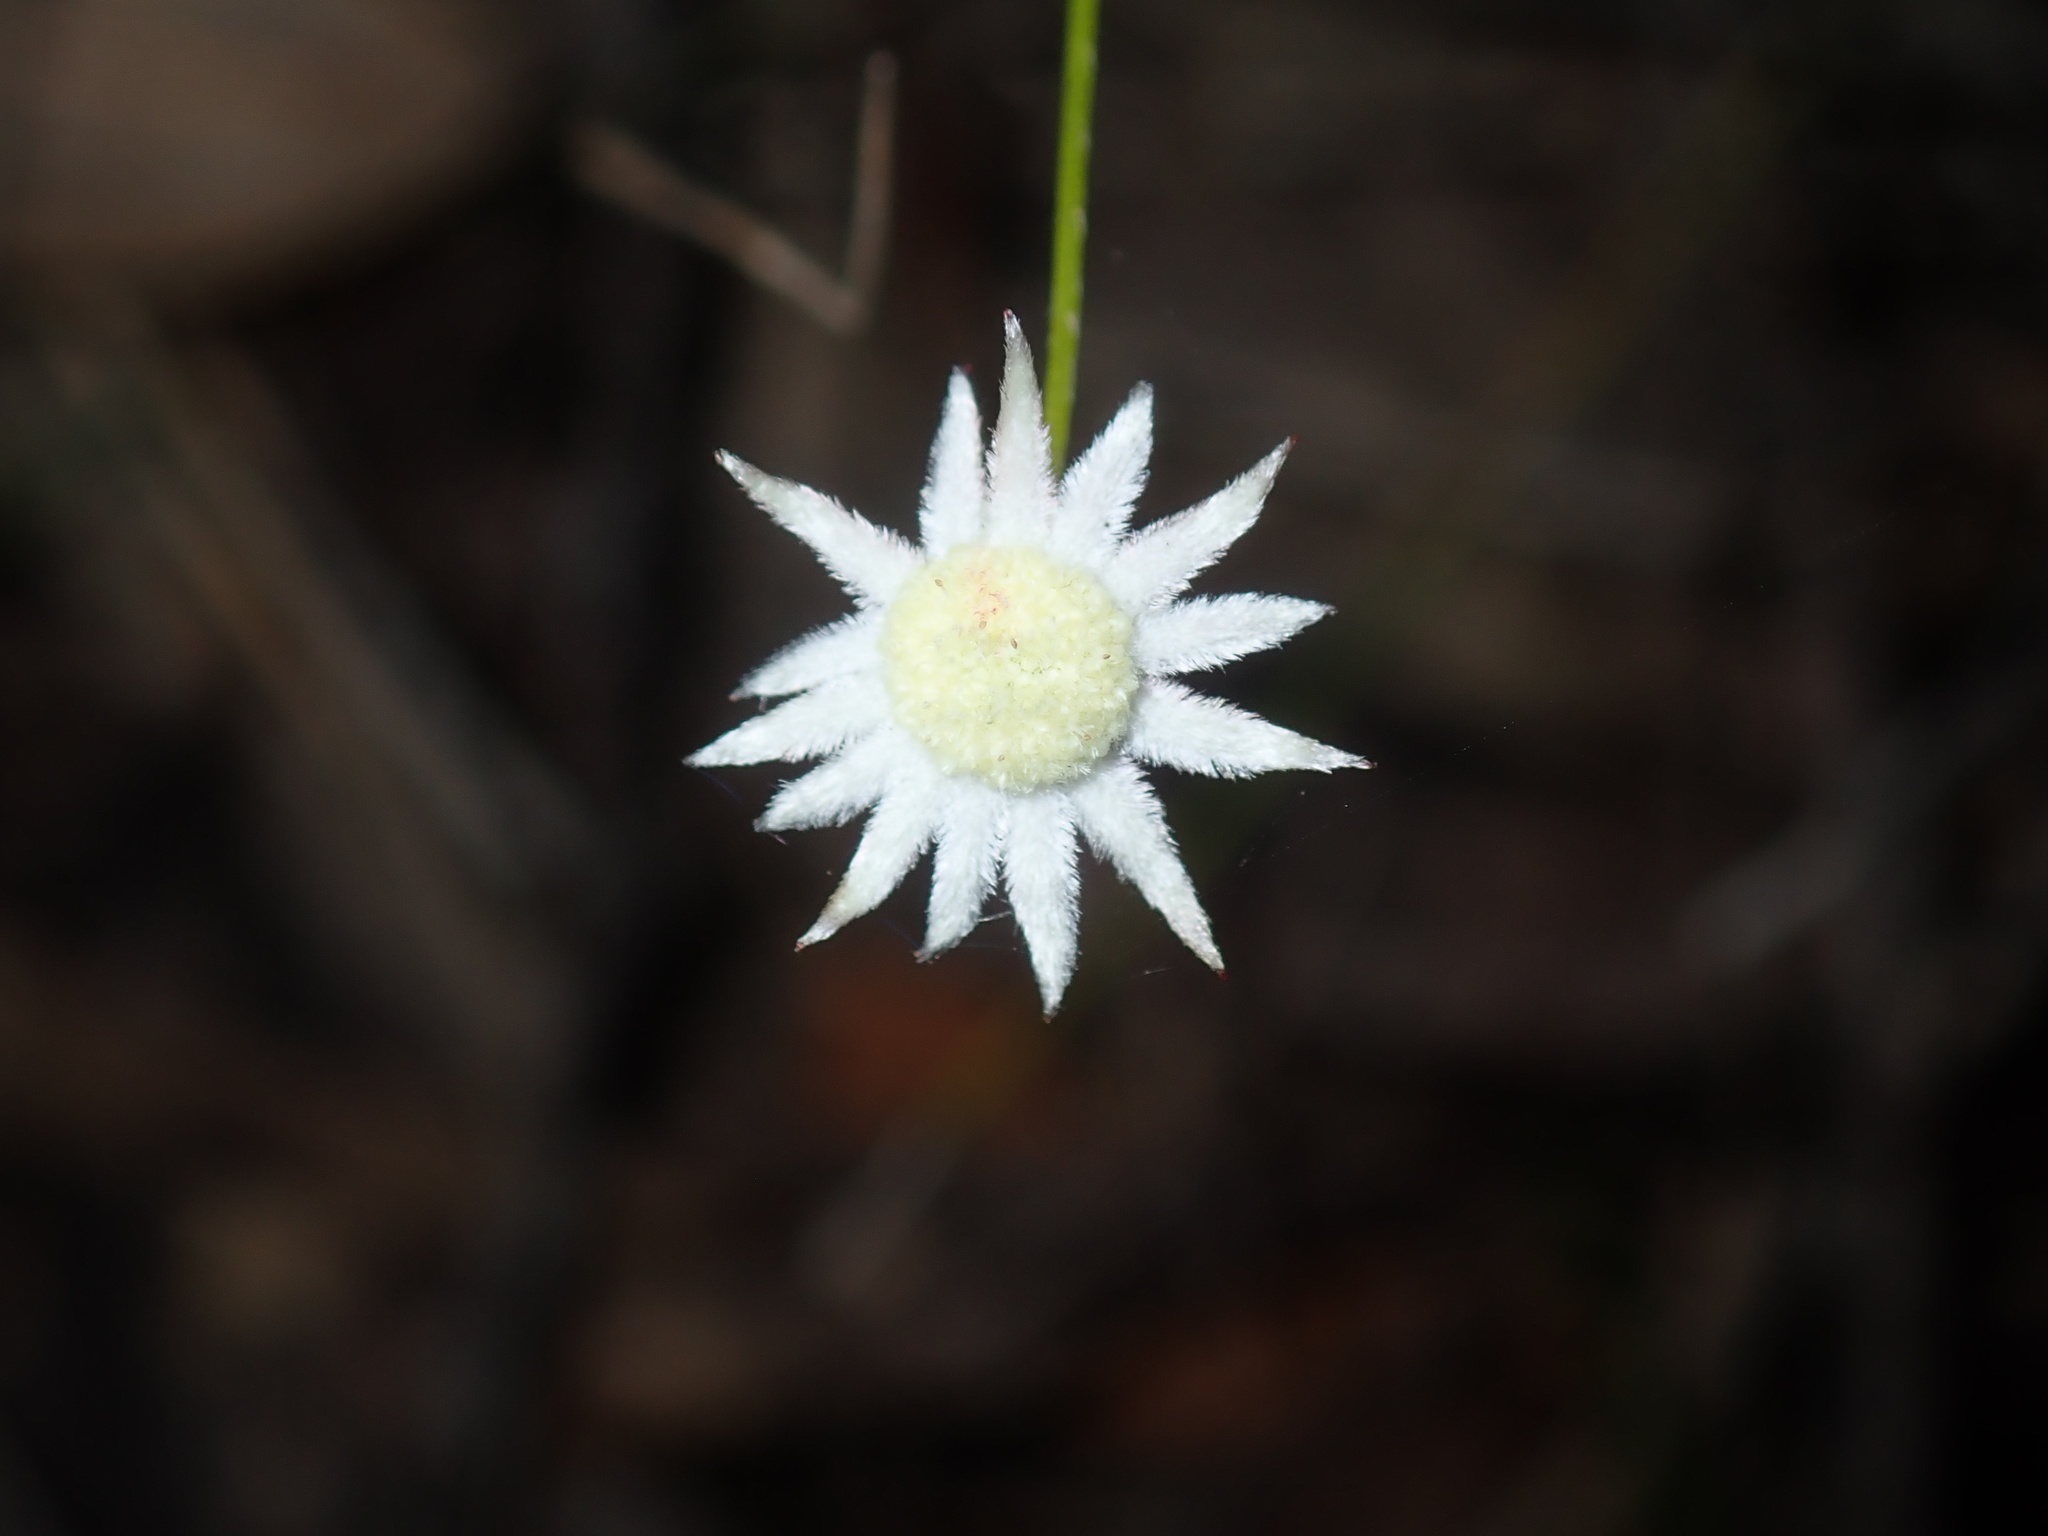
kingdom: Plantae
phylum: Tracheophyta
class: Magnoliopsida
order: Apiales
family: Apiaceae
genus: Actinotus
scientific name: Actinotus minor
